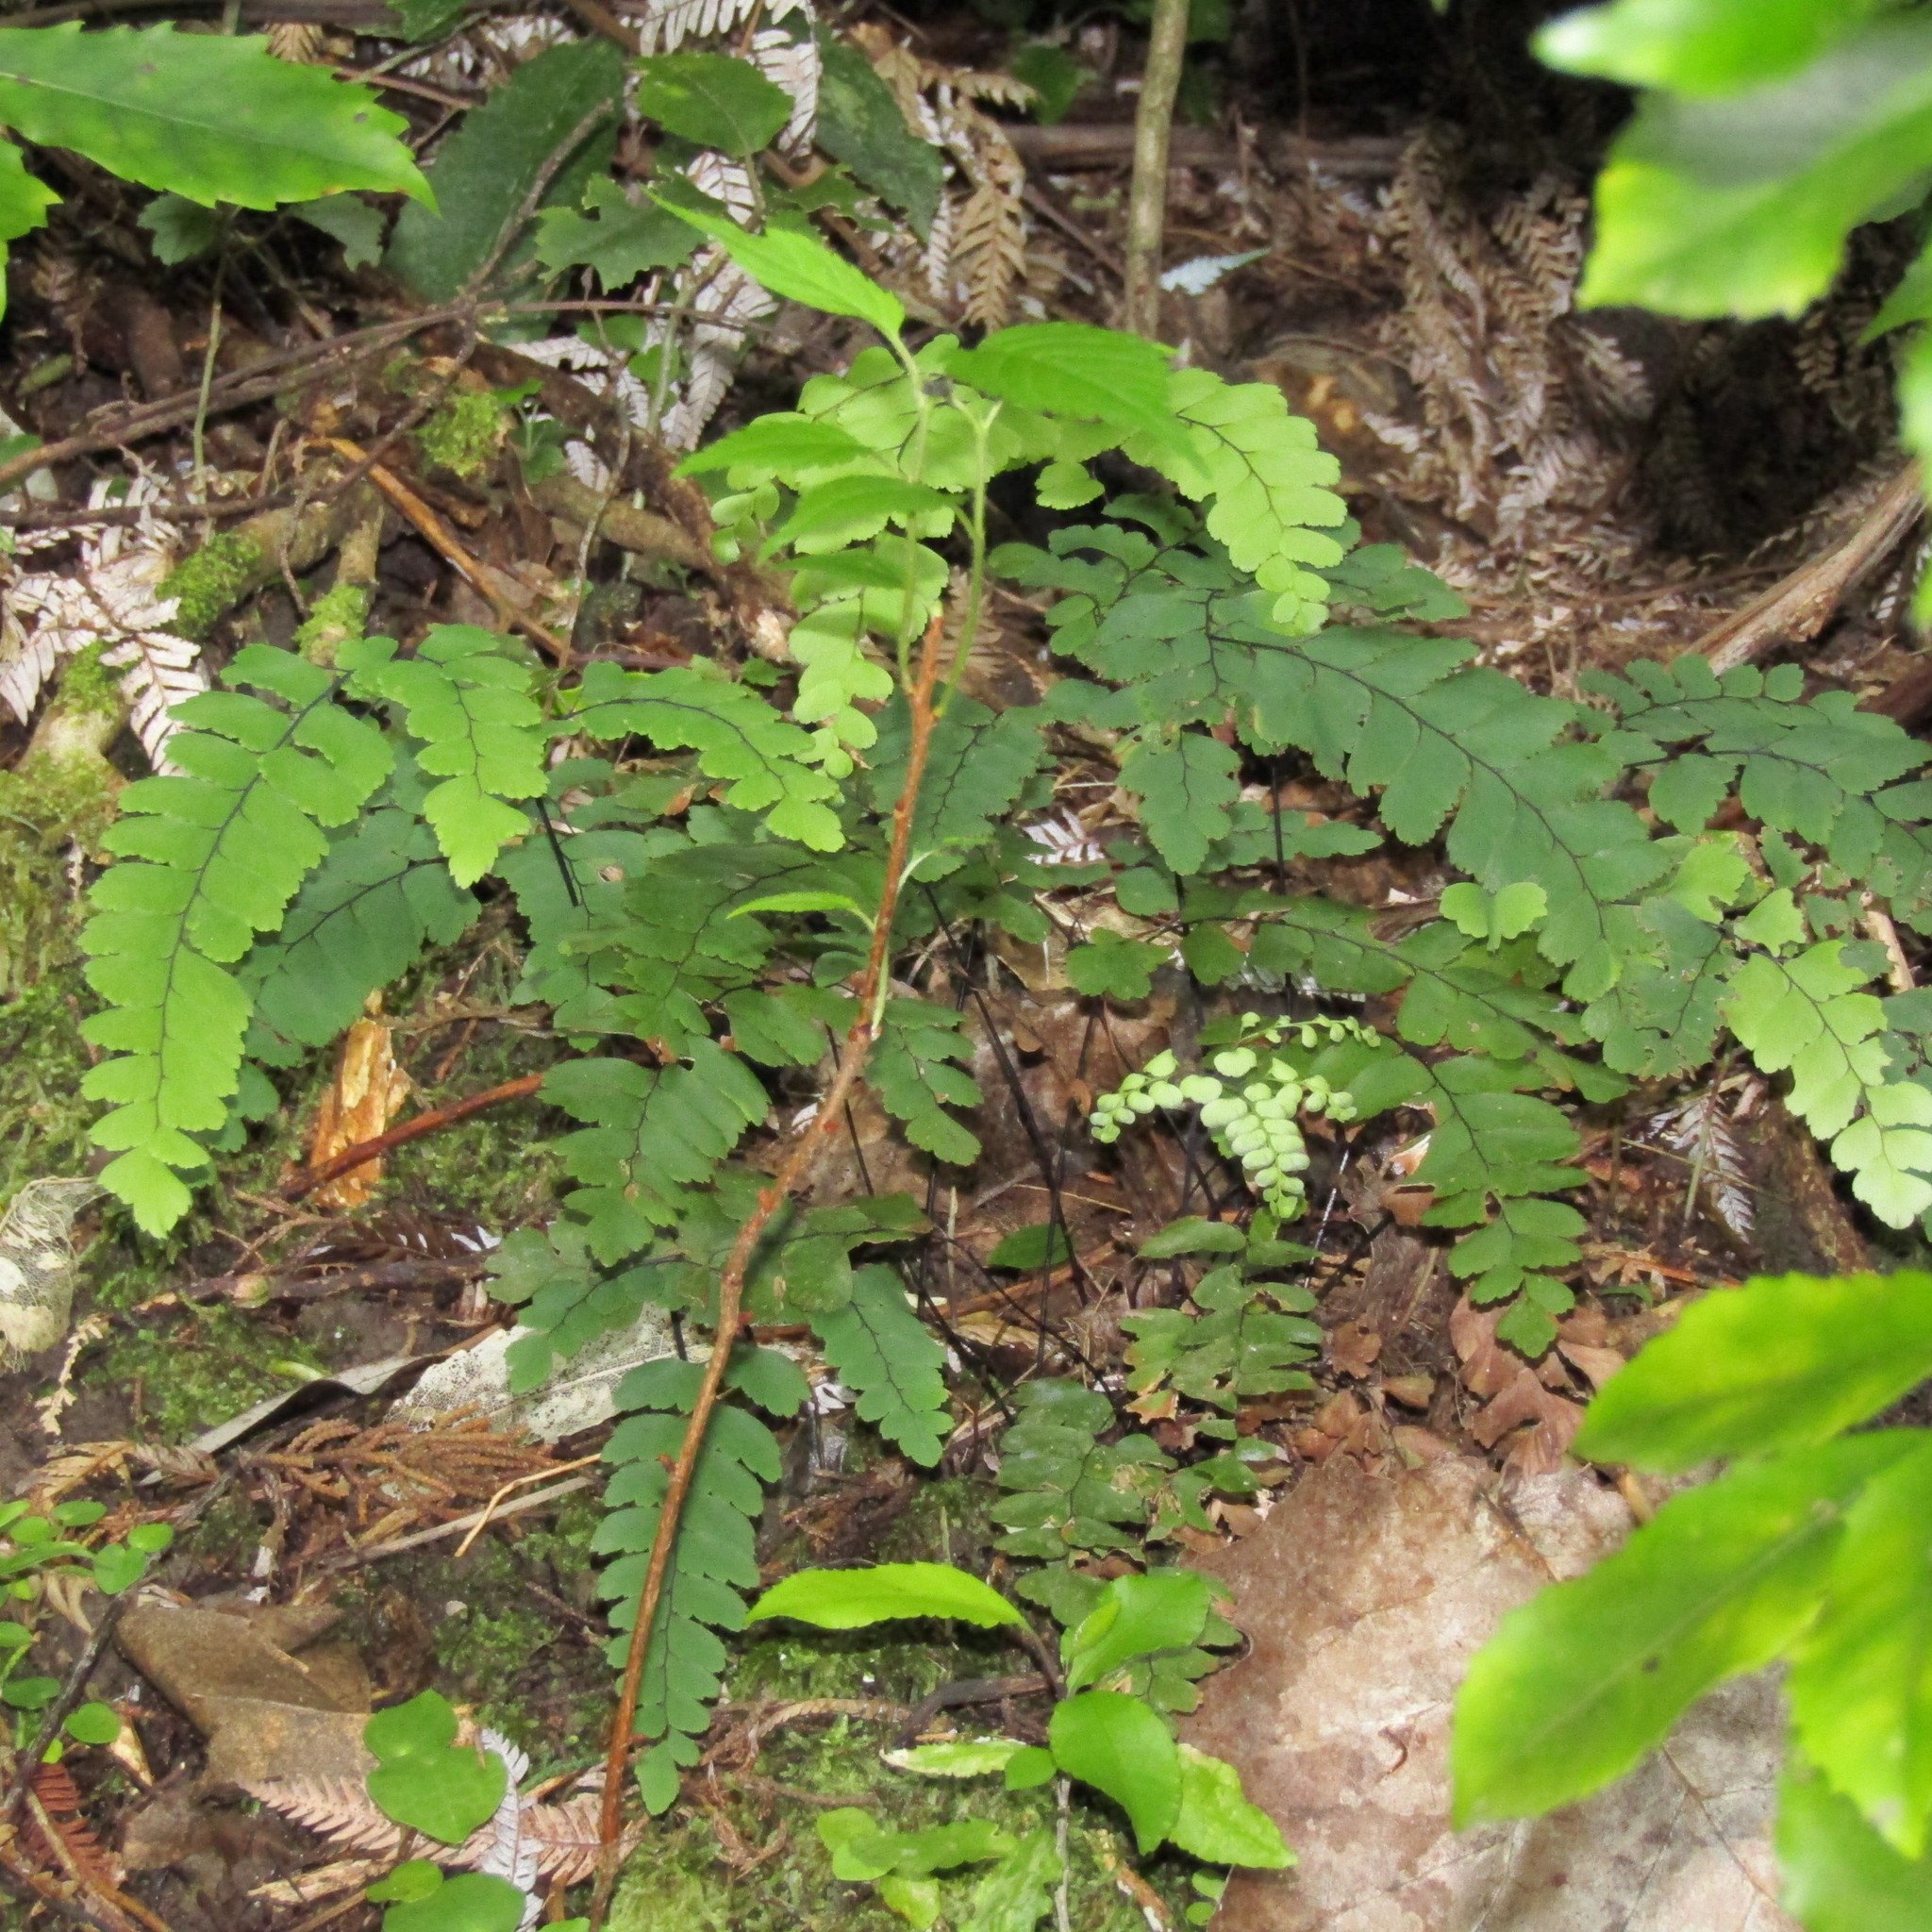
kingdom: Plantae
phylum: Tracheophyta
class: Polypodiopsida
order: Polypodiales
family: Pteridaceae
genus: Adiantum
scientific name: Adiantum cunninghamii
